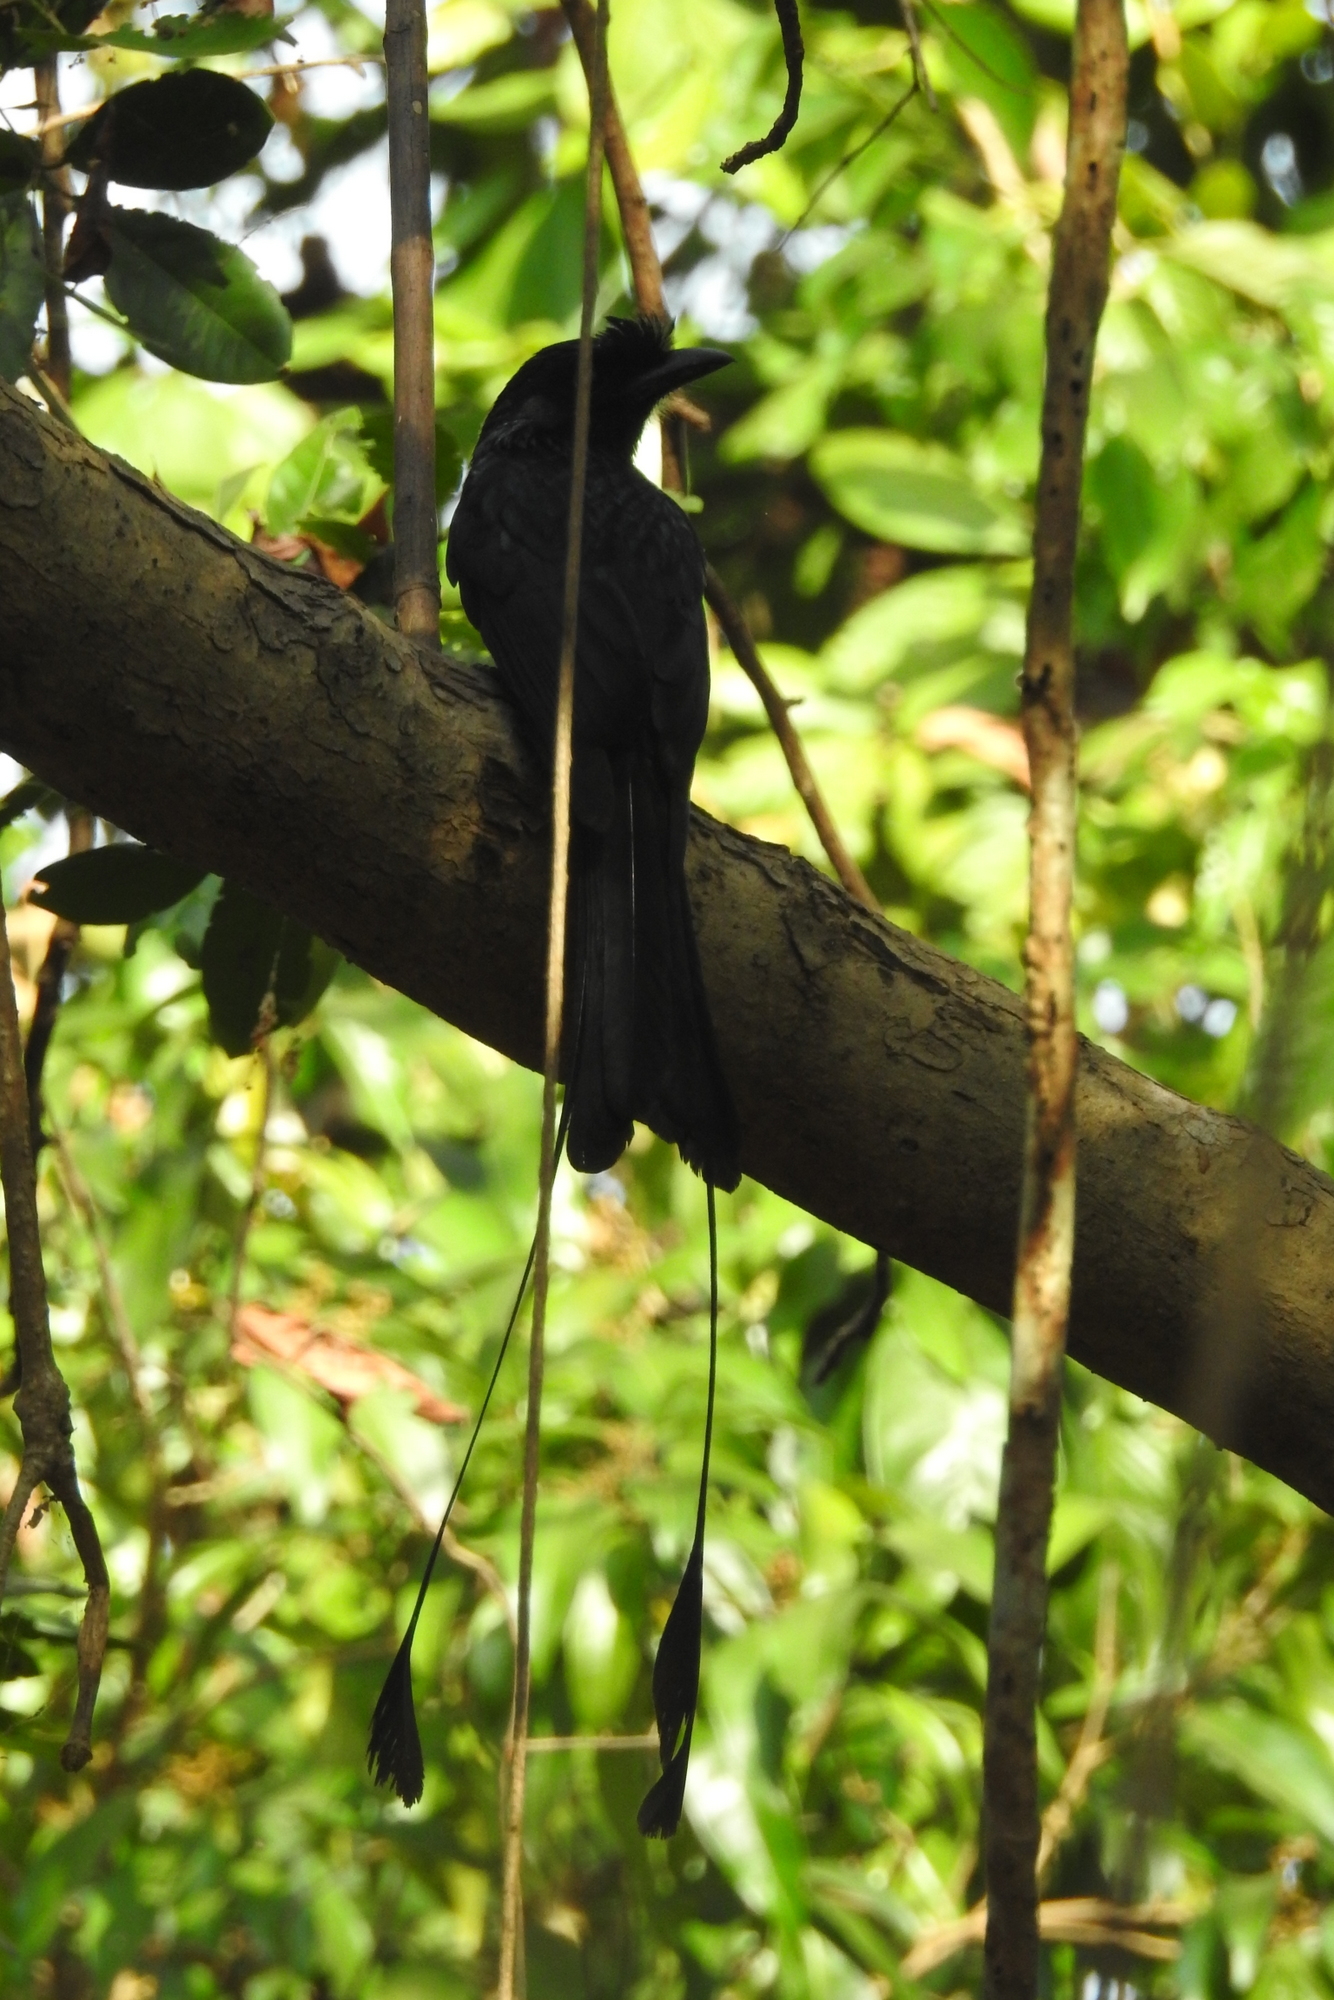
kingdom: Animalia
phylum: Chordata
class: Aves
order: Passeriformes
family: Dicruridae
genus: Dicrurus
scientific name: Dicrurus paradiseus
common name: Greater racket-tailed drongo
